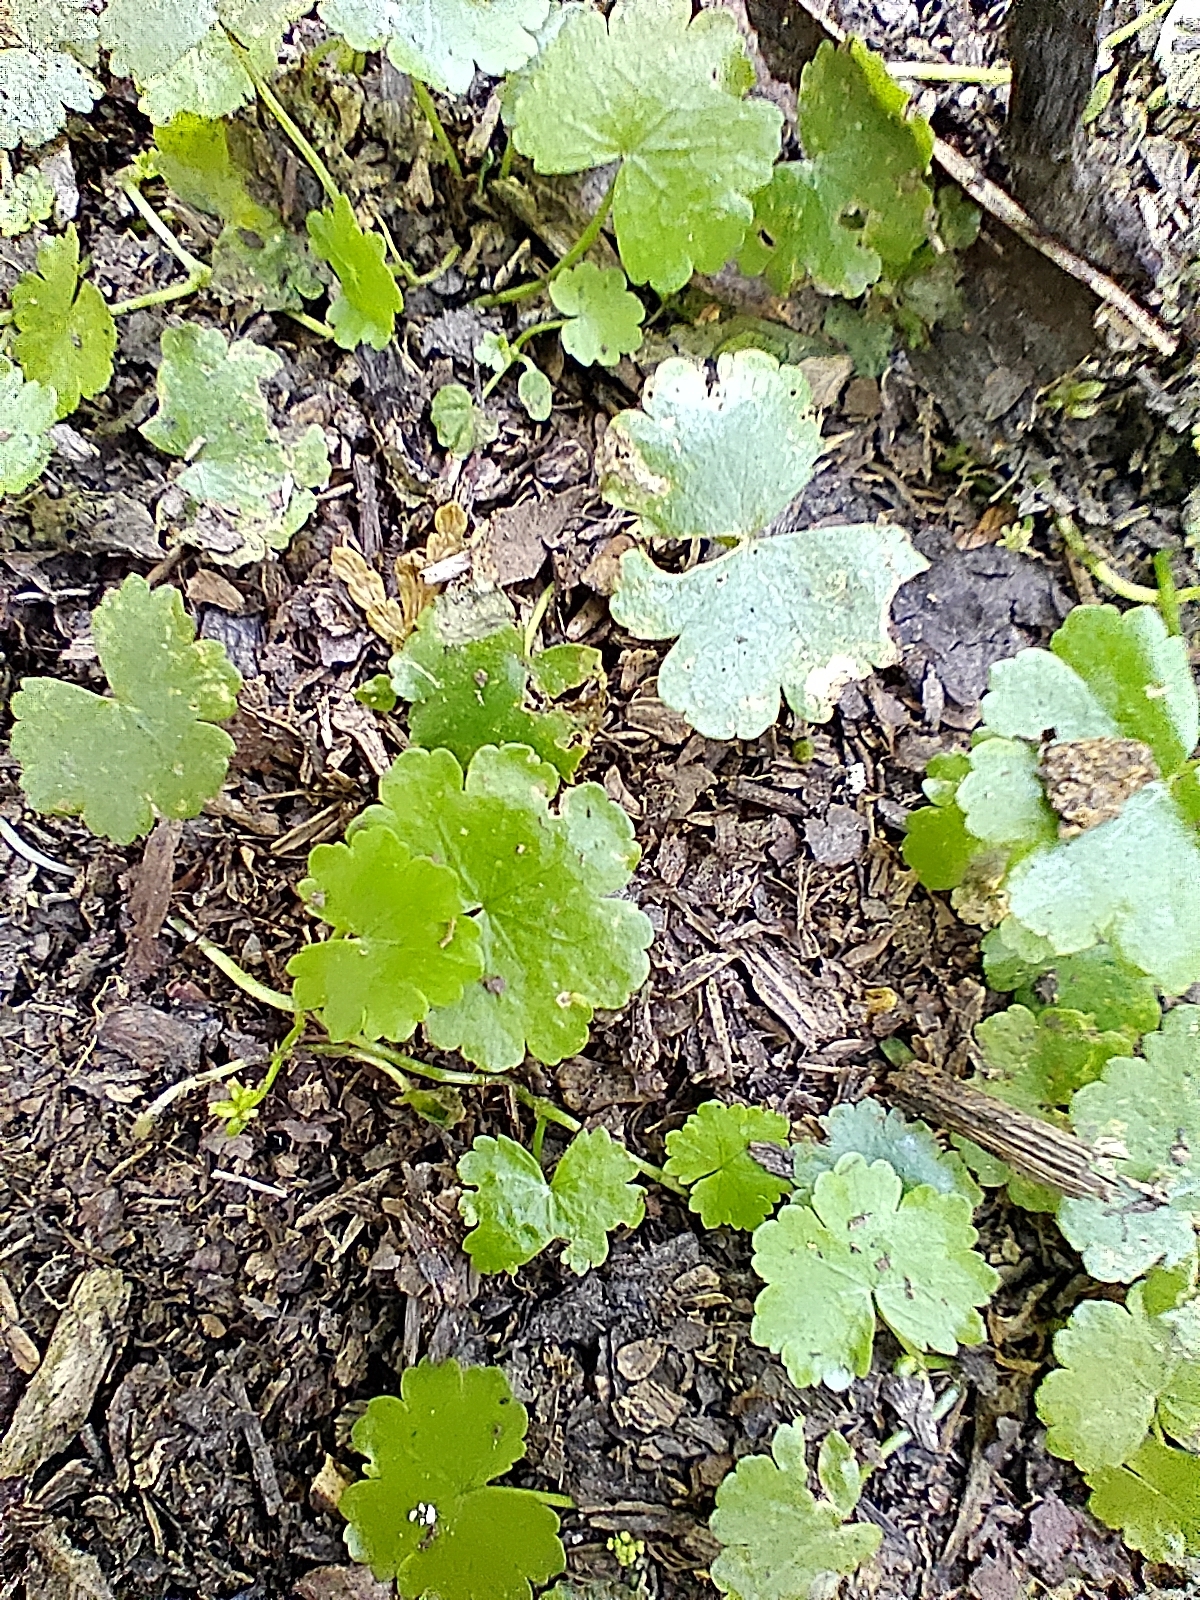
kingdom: Plantae
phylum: Tracheophyta
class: Magnoliopsida
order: Apiales
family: Araliaceae
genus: Hydrocotyle
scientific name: Hydrocotyle sibthorpioides
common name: Lawn marshpennywort
